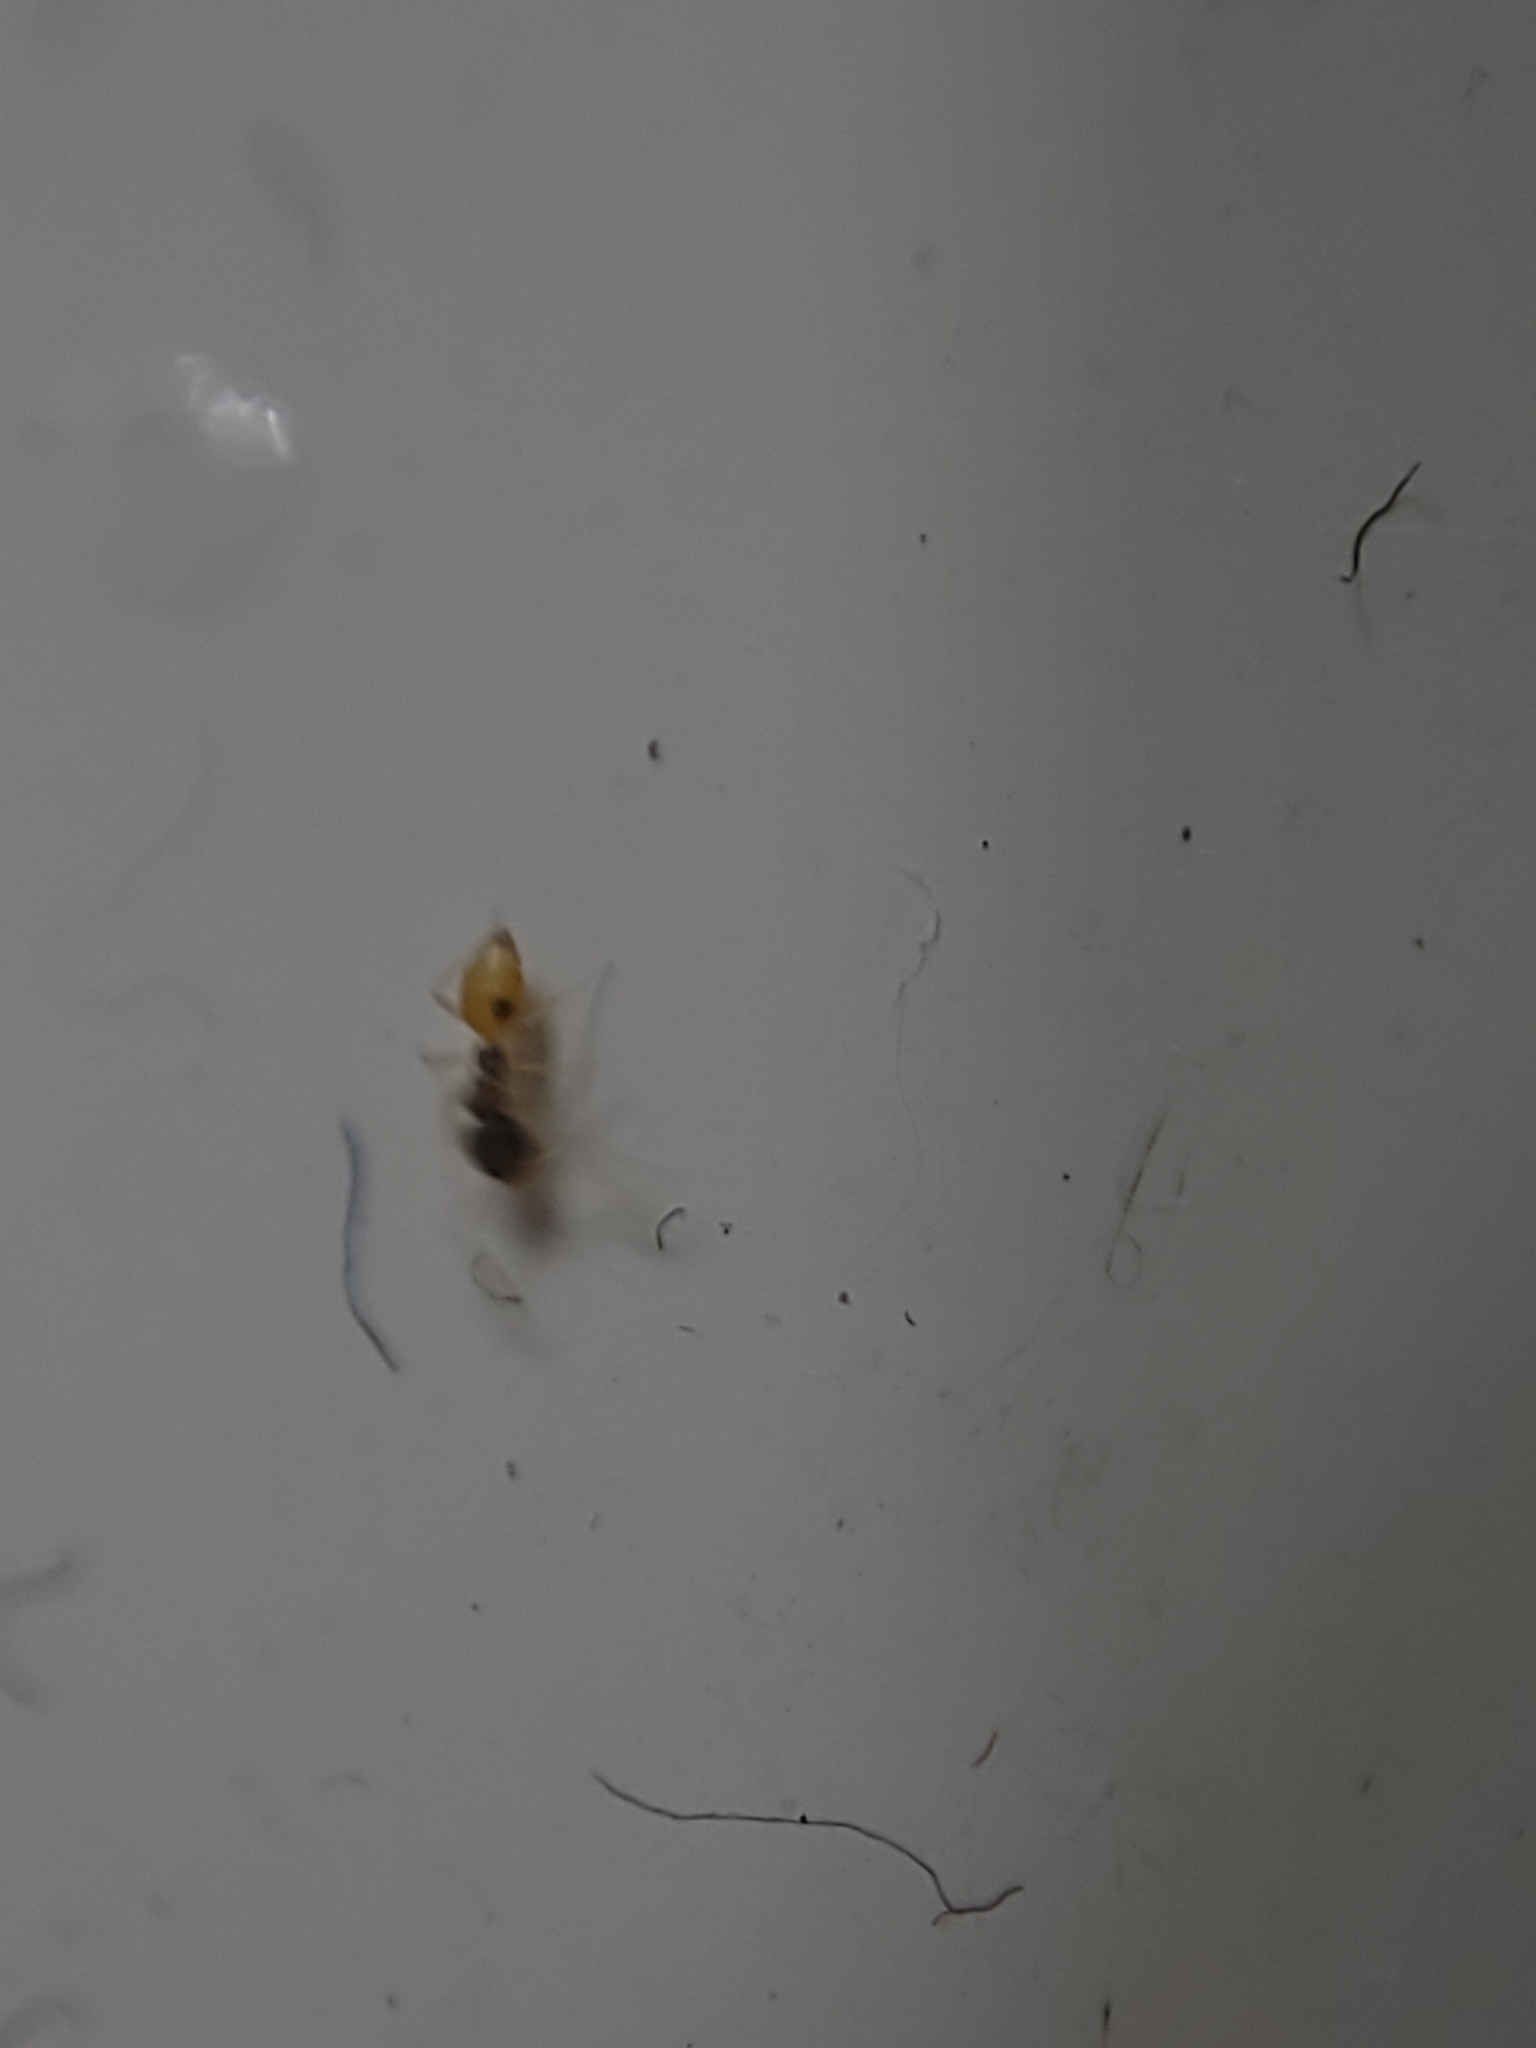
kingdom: Animalia
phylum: Arthropoda
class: Insecta
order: Hymenoptera
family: Formicidae
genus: Tapinoma
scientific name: Tapinoma melanocephalum
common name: Ghost ant
